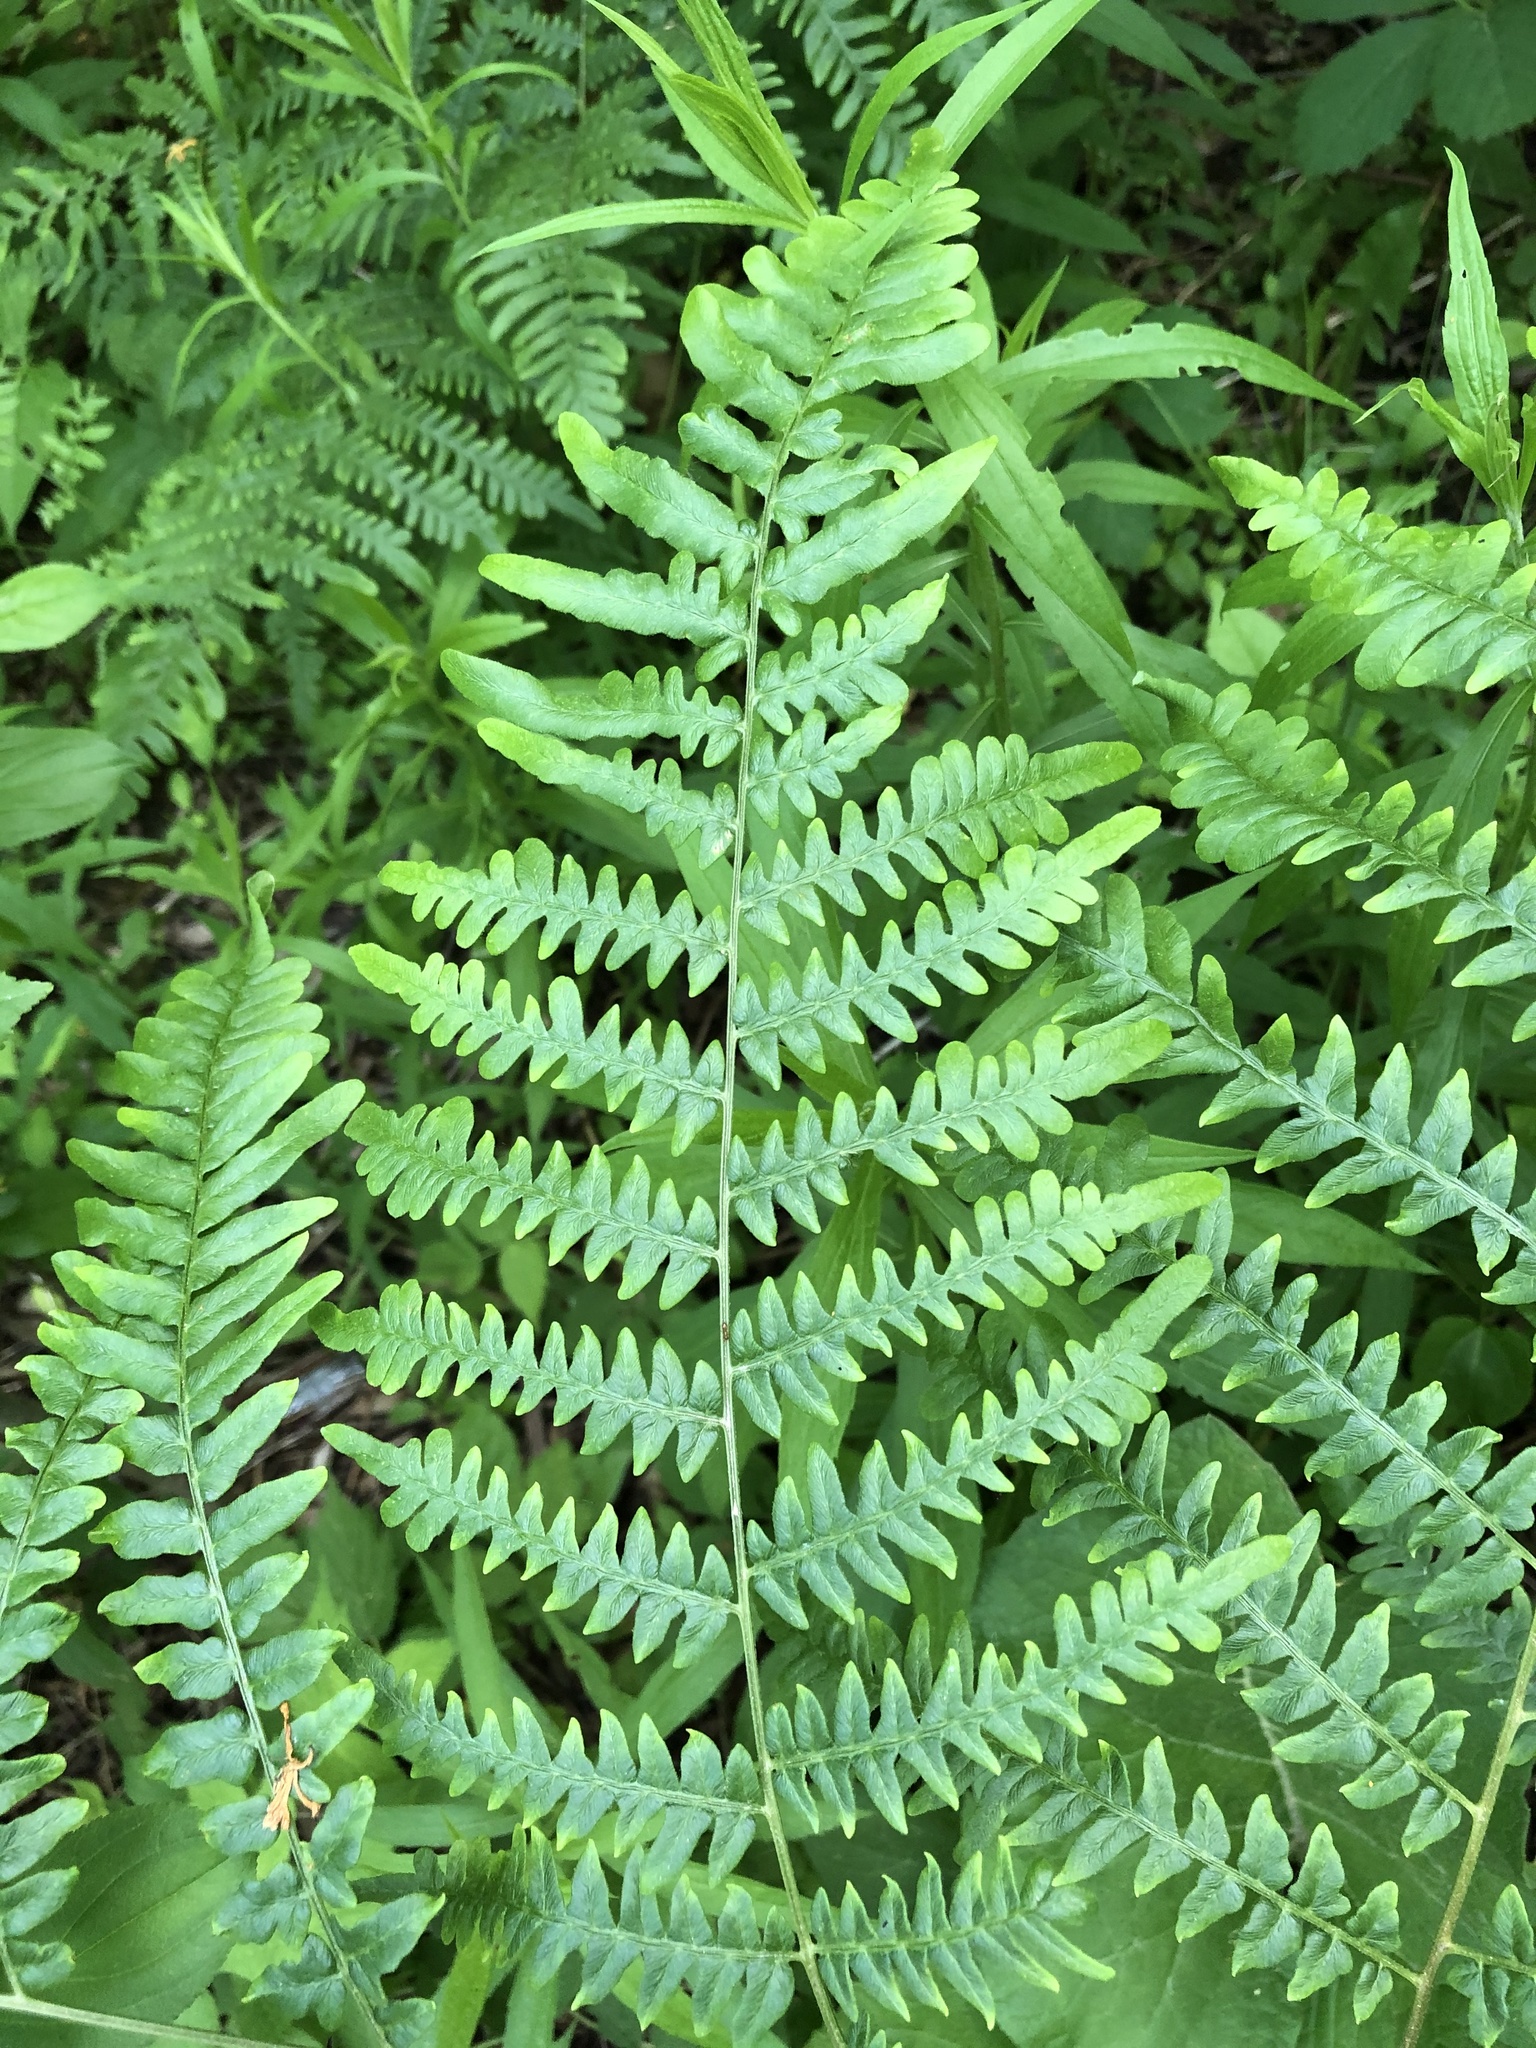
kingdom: Plantae
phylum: Tracheophyta
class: Polypodiopsida
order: Polypodiales
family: Dennstaedtiaceae
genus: Pteridium
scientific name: Pteridium aquilinum
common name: Bracken
